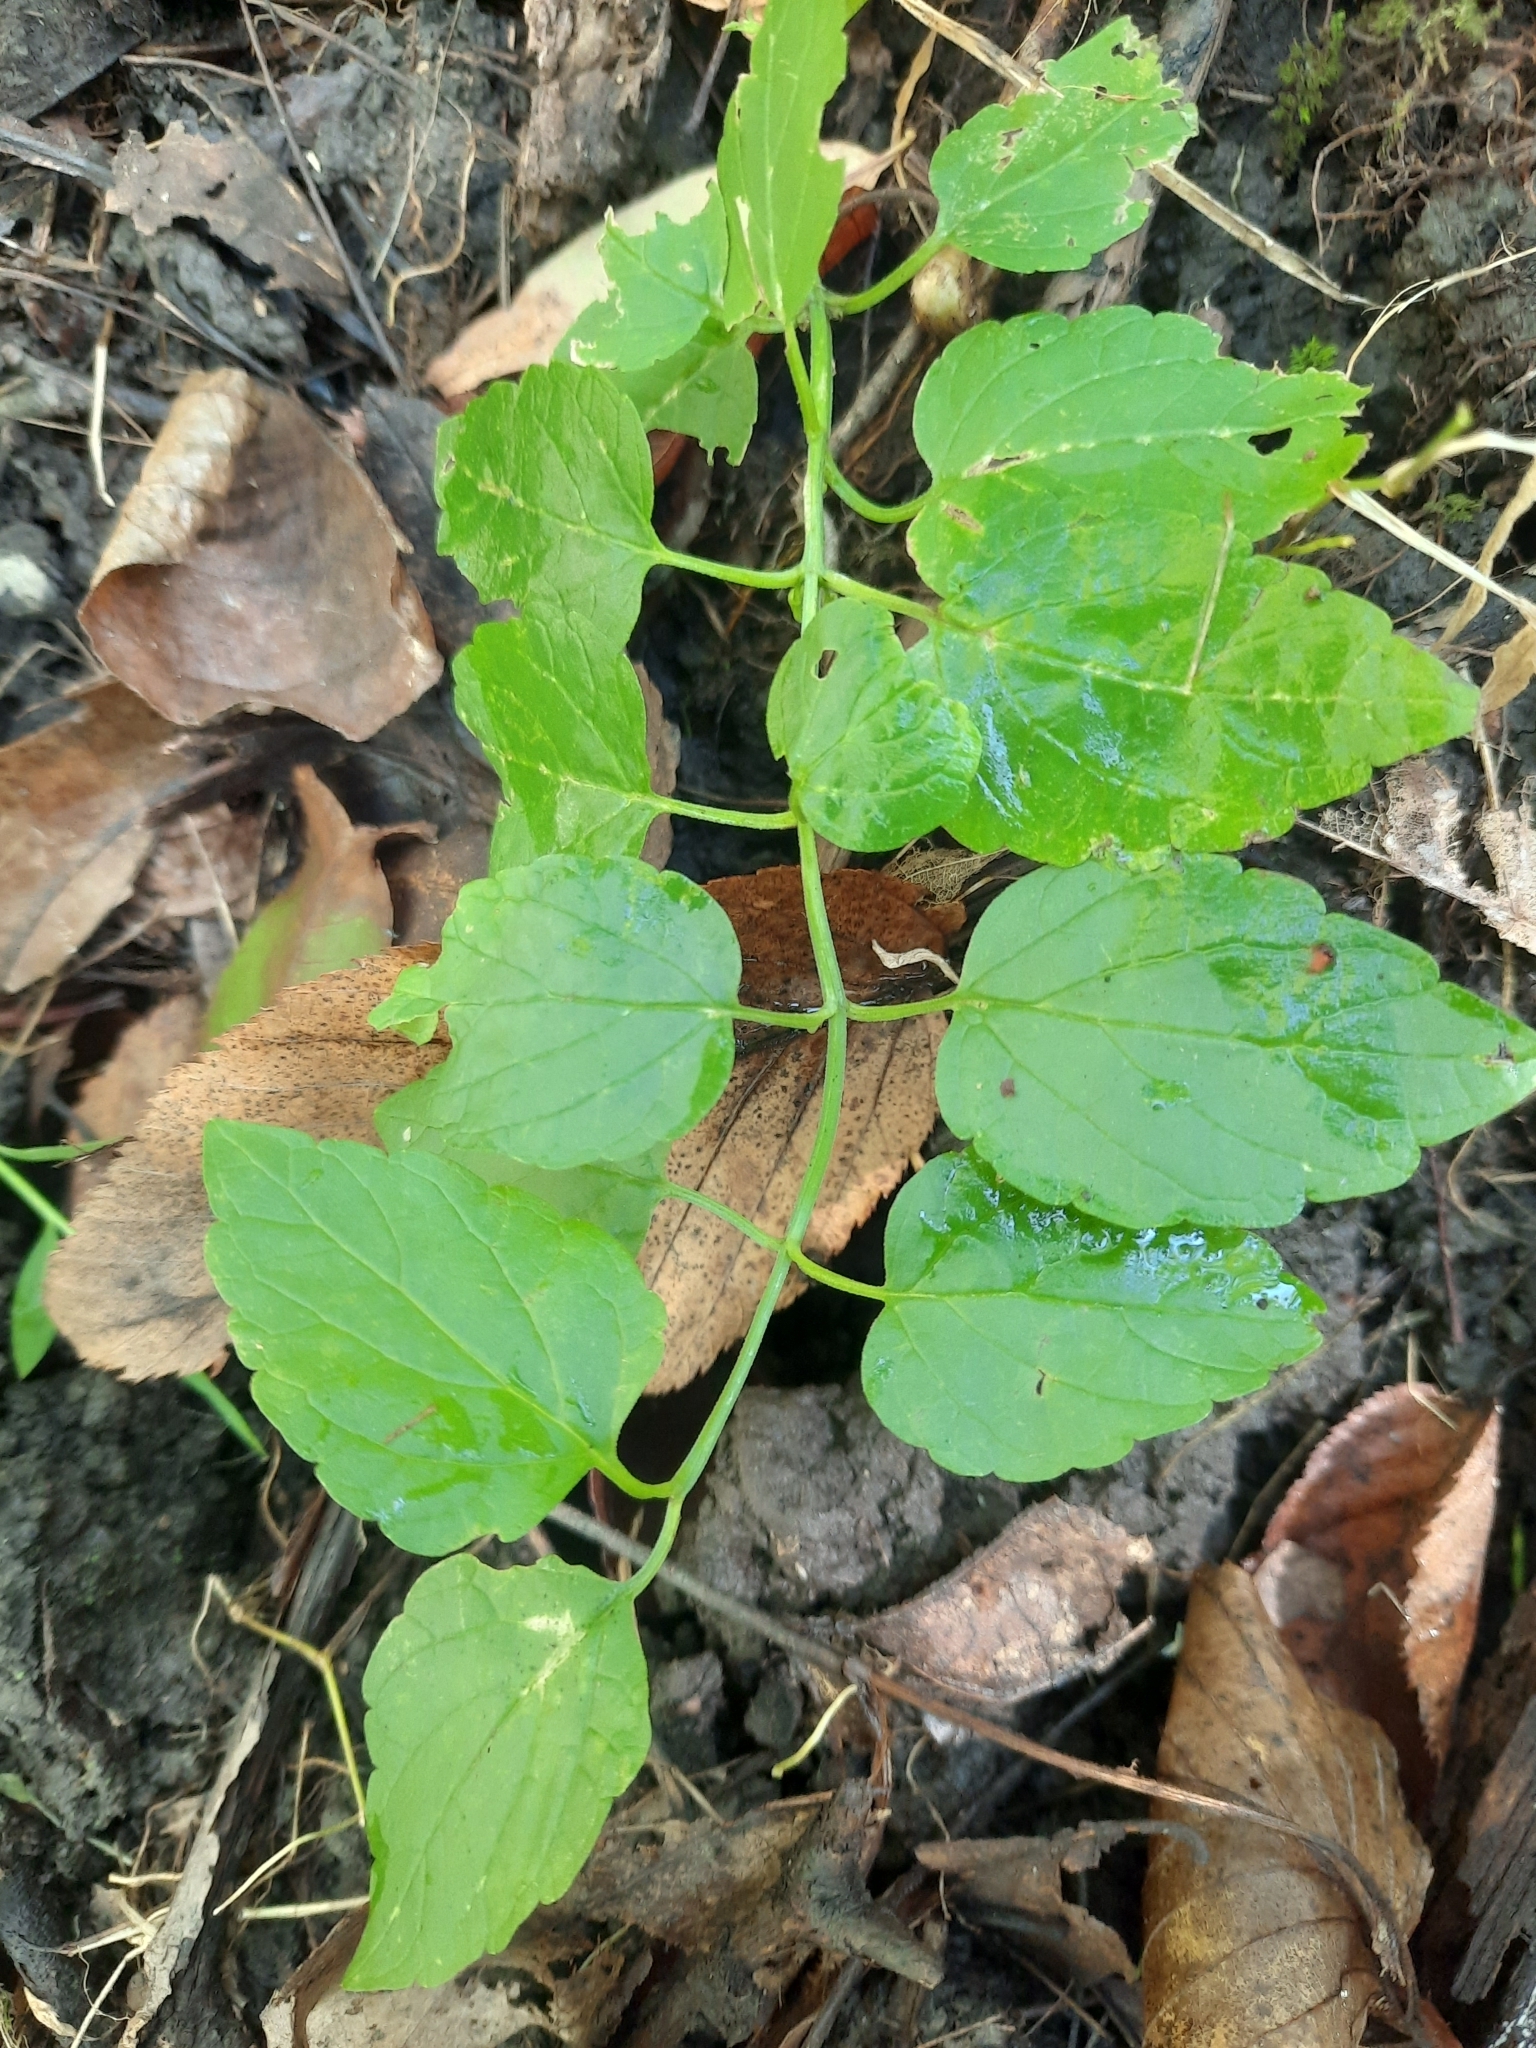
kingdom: Plantae
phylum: Tracheophyta
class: Magnoliopsida
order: Lamiales
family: Lamiaceae
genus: Scutellaria
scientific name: Scutellaria lateriflora
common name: Blue skullcap
